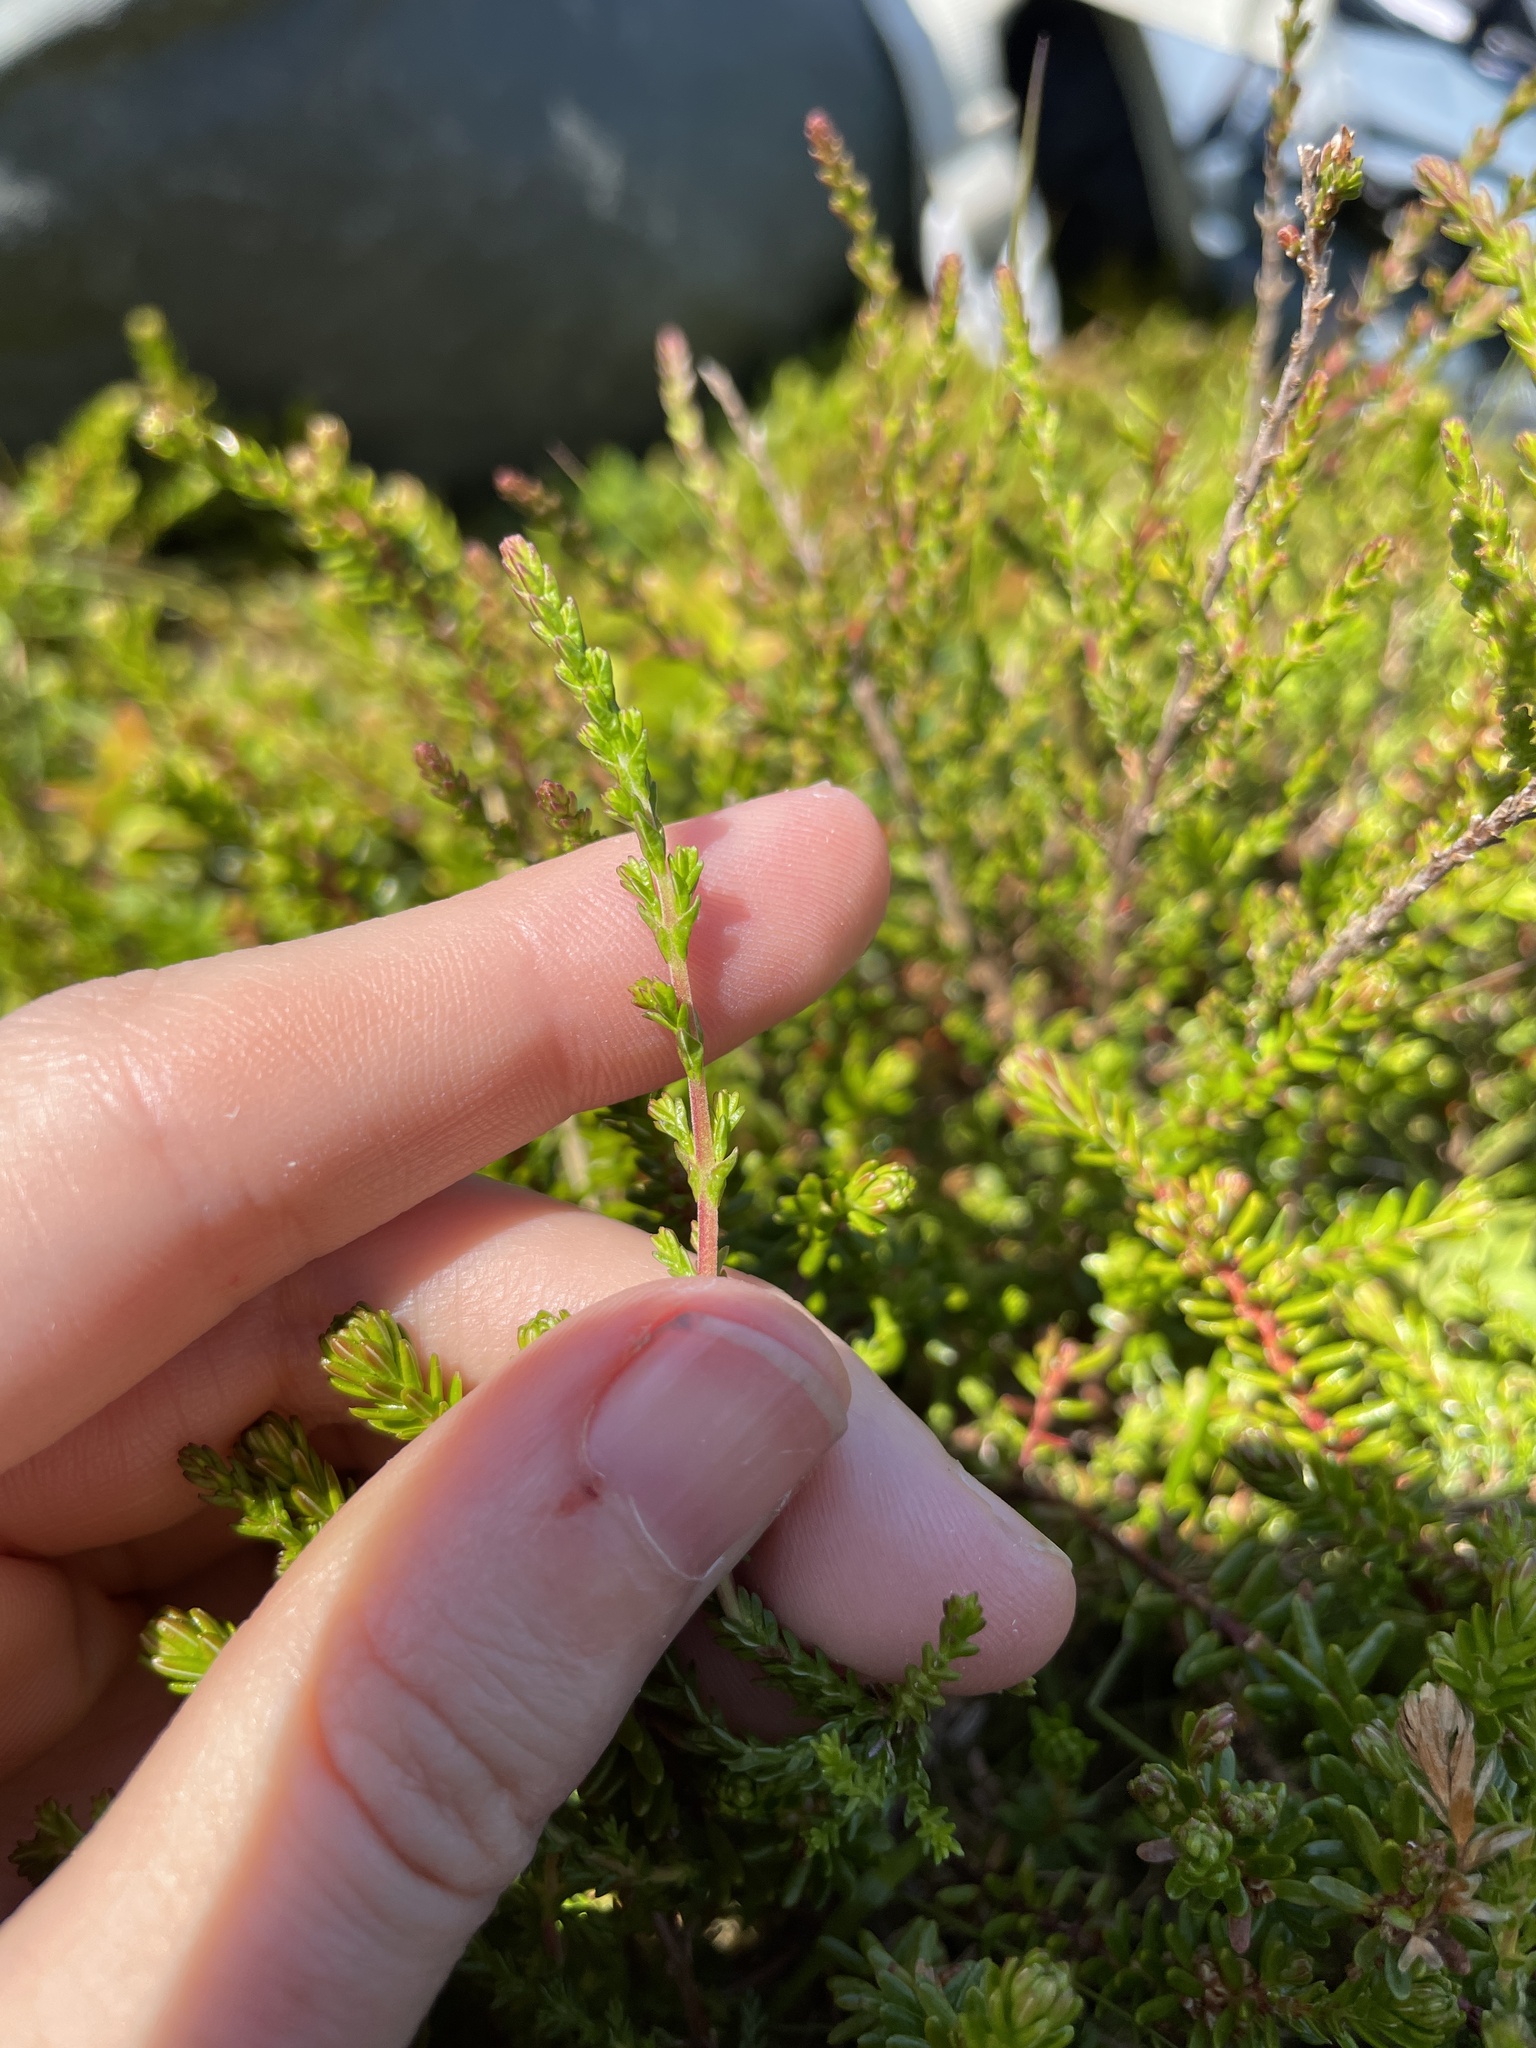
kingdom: Plantae
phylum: Tracheophyta
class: Magnoliopsida
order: Ericales
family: Ericaceae
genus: Calluna
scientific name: Calluna vulgaris
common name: Heather
